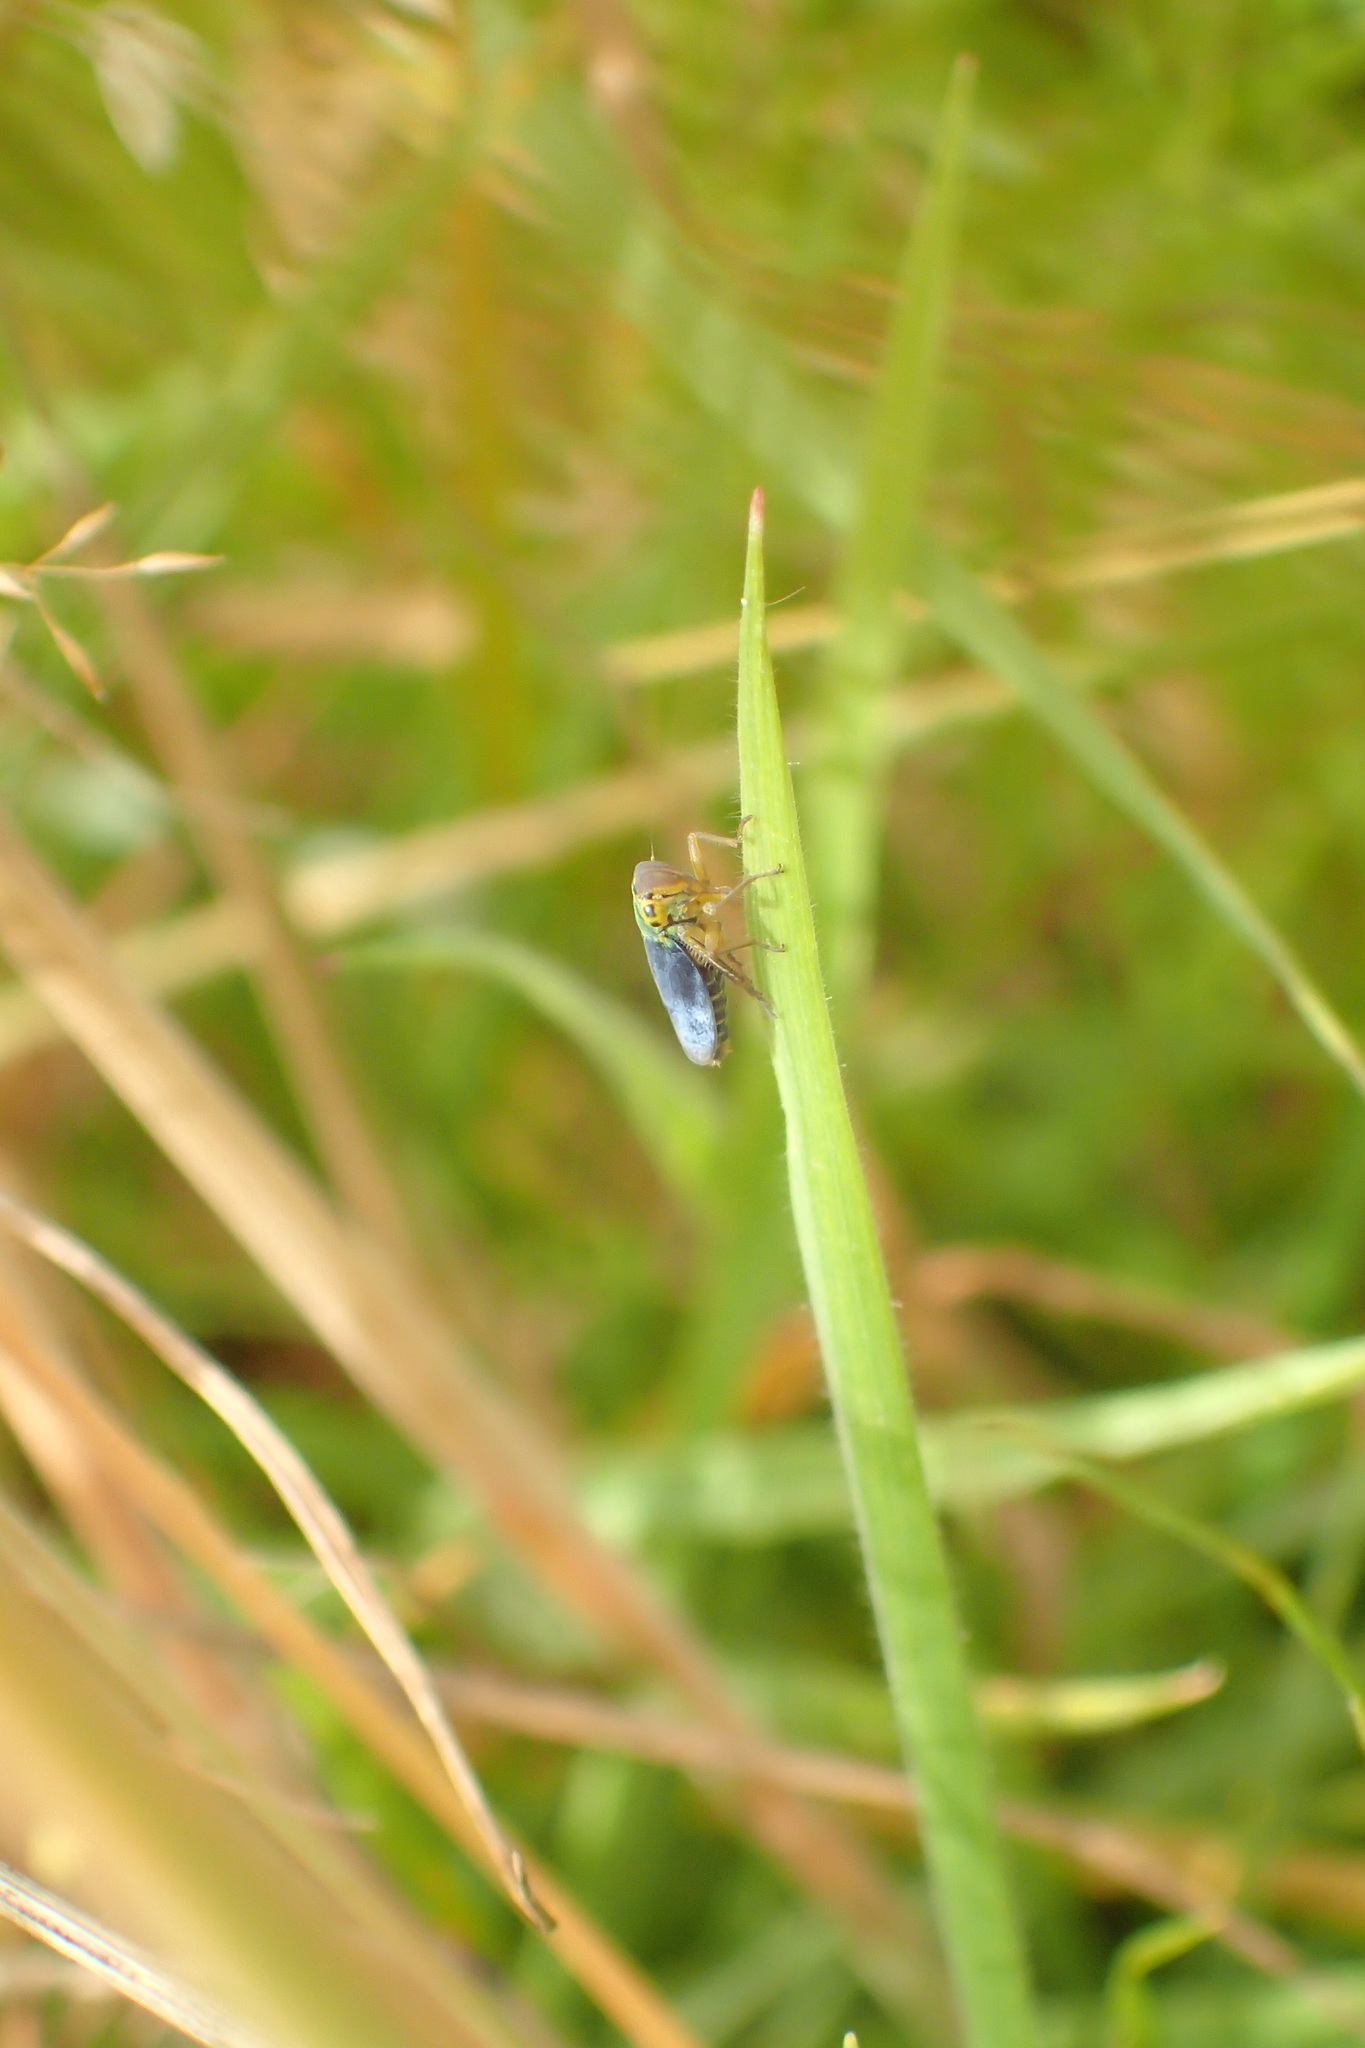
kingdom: Animalia
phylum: Arthropoda
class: Insecta
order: Hemiptera
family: Cicadellidae
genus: Cicadella
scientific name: Cicadella viridis
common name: Leafhopper
